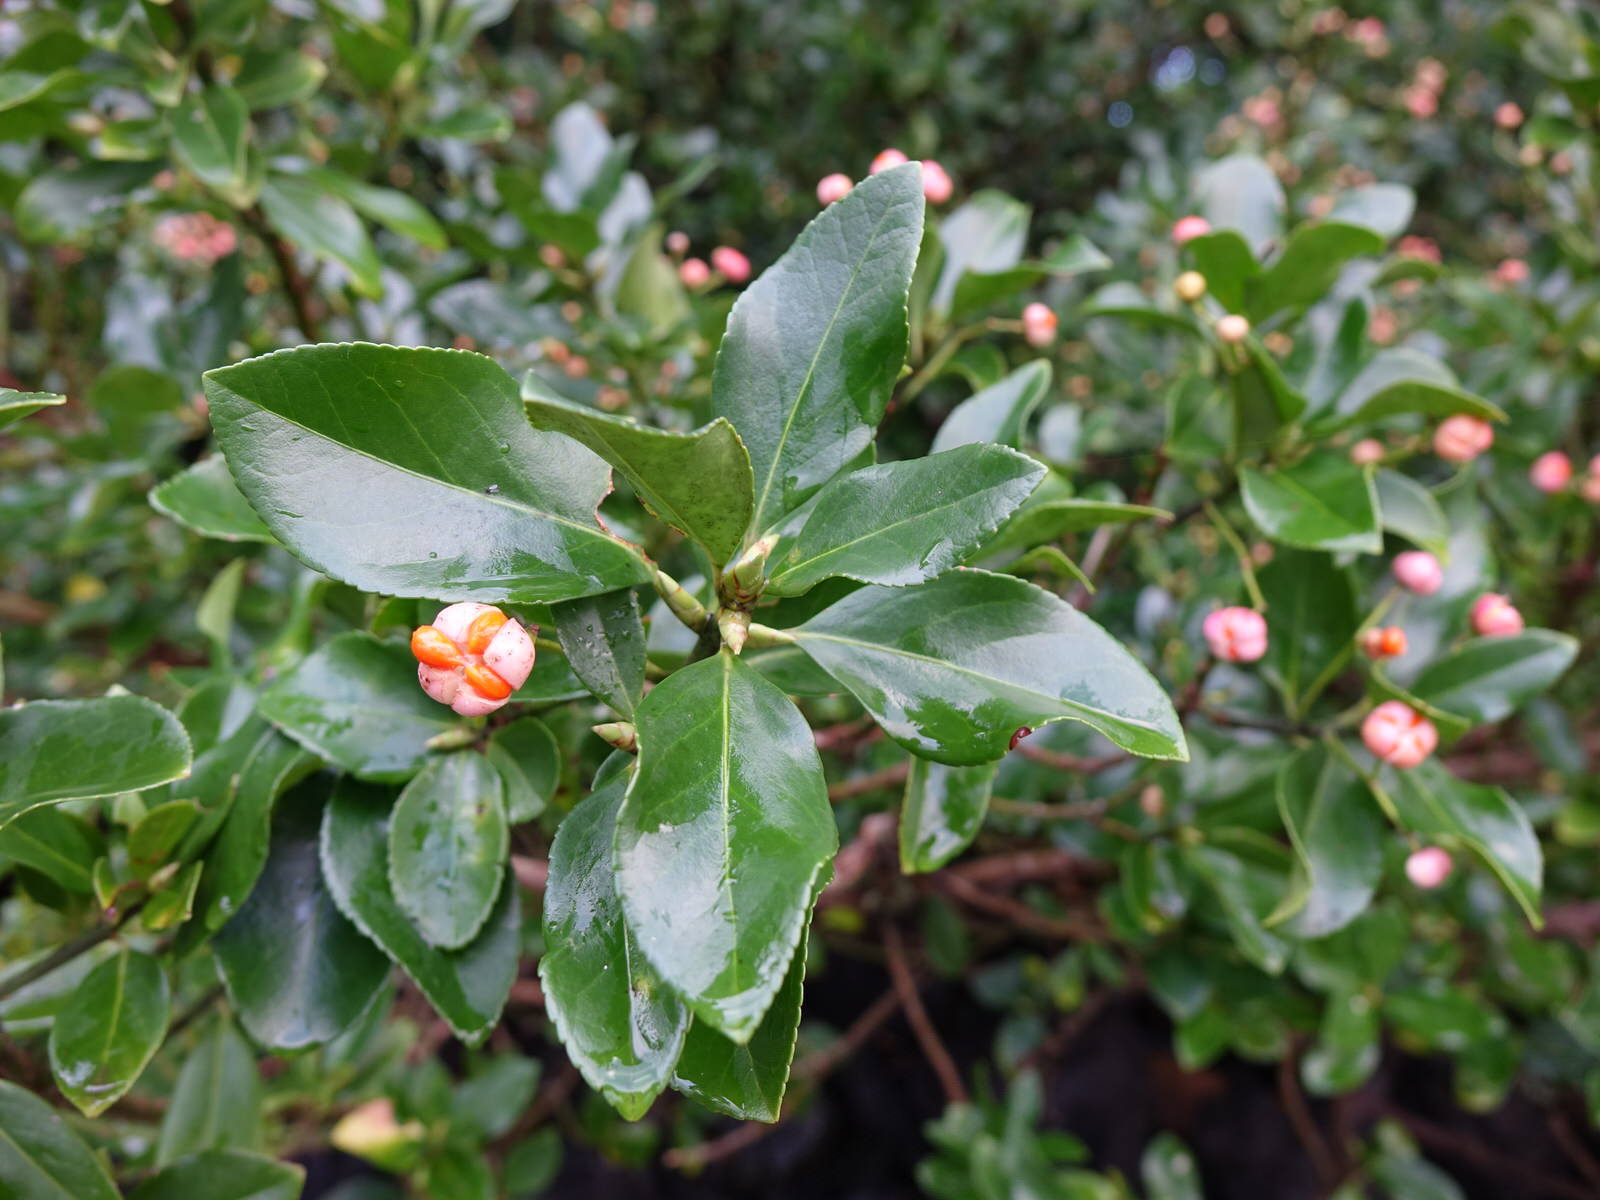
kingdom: Plantae
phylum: Tracheophyta
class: Magnoliopsida
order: Celastrales
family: Celastraceae
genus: Euonymus
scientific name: Euonymus japonicus
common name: Japanese spindletree
